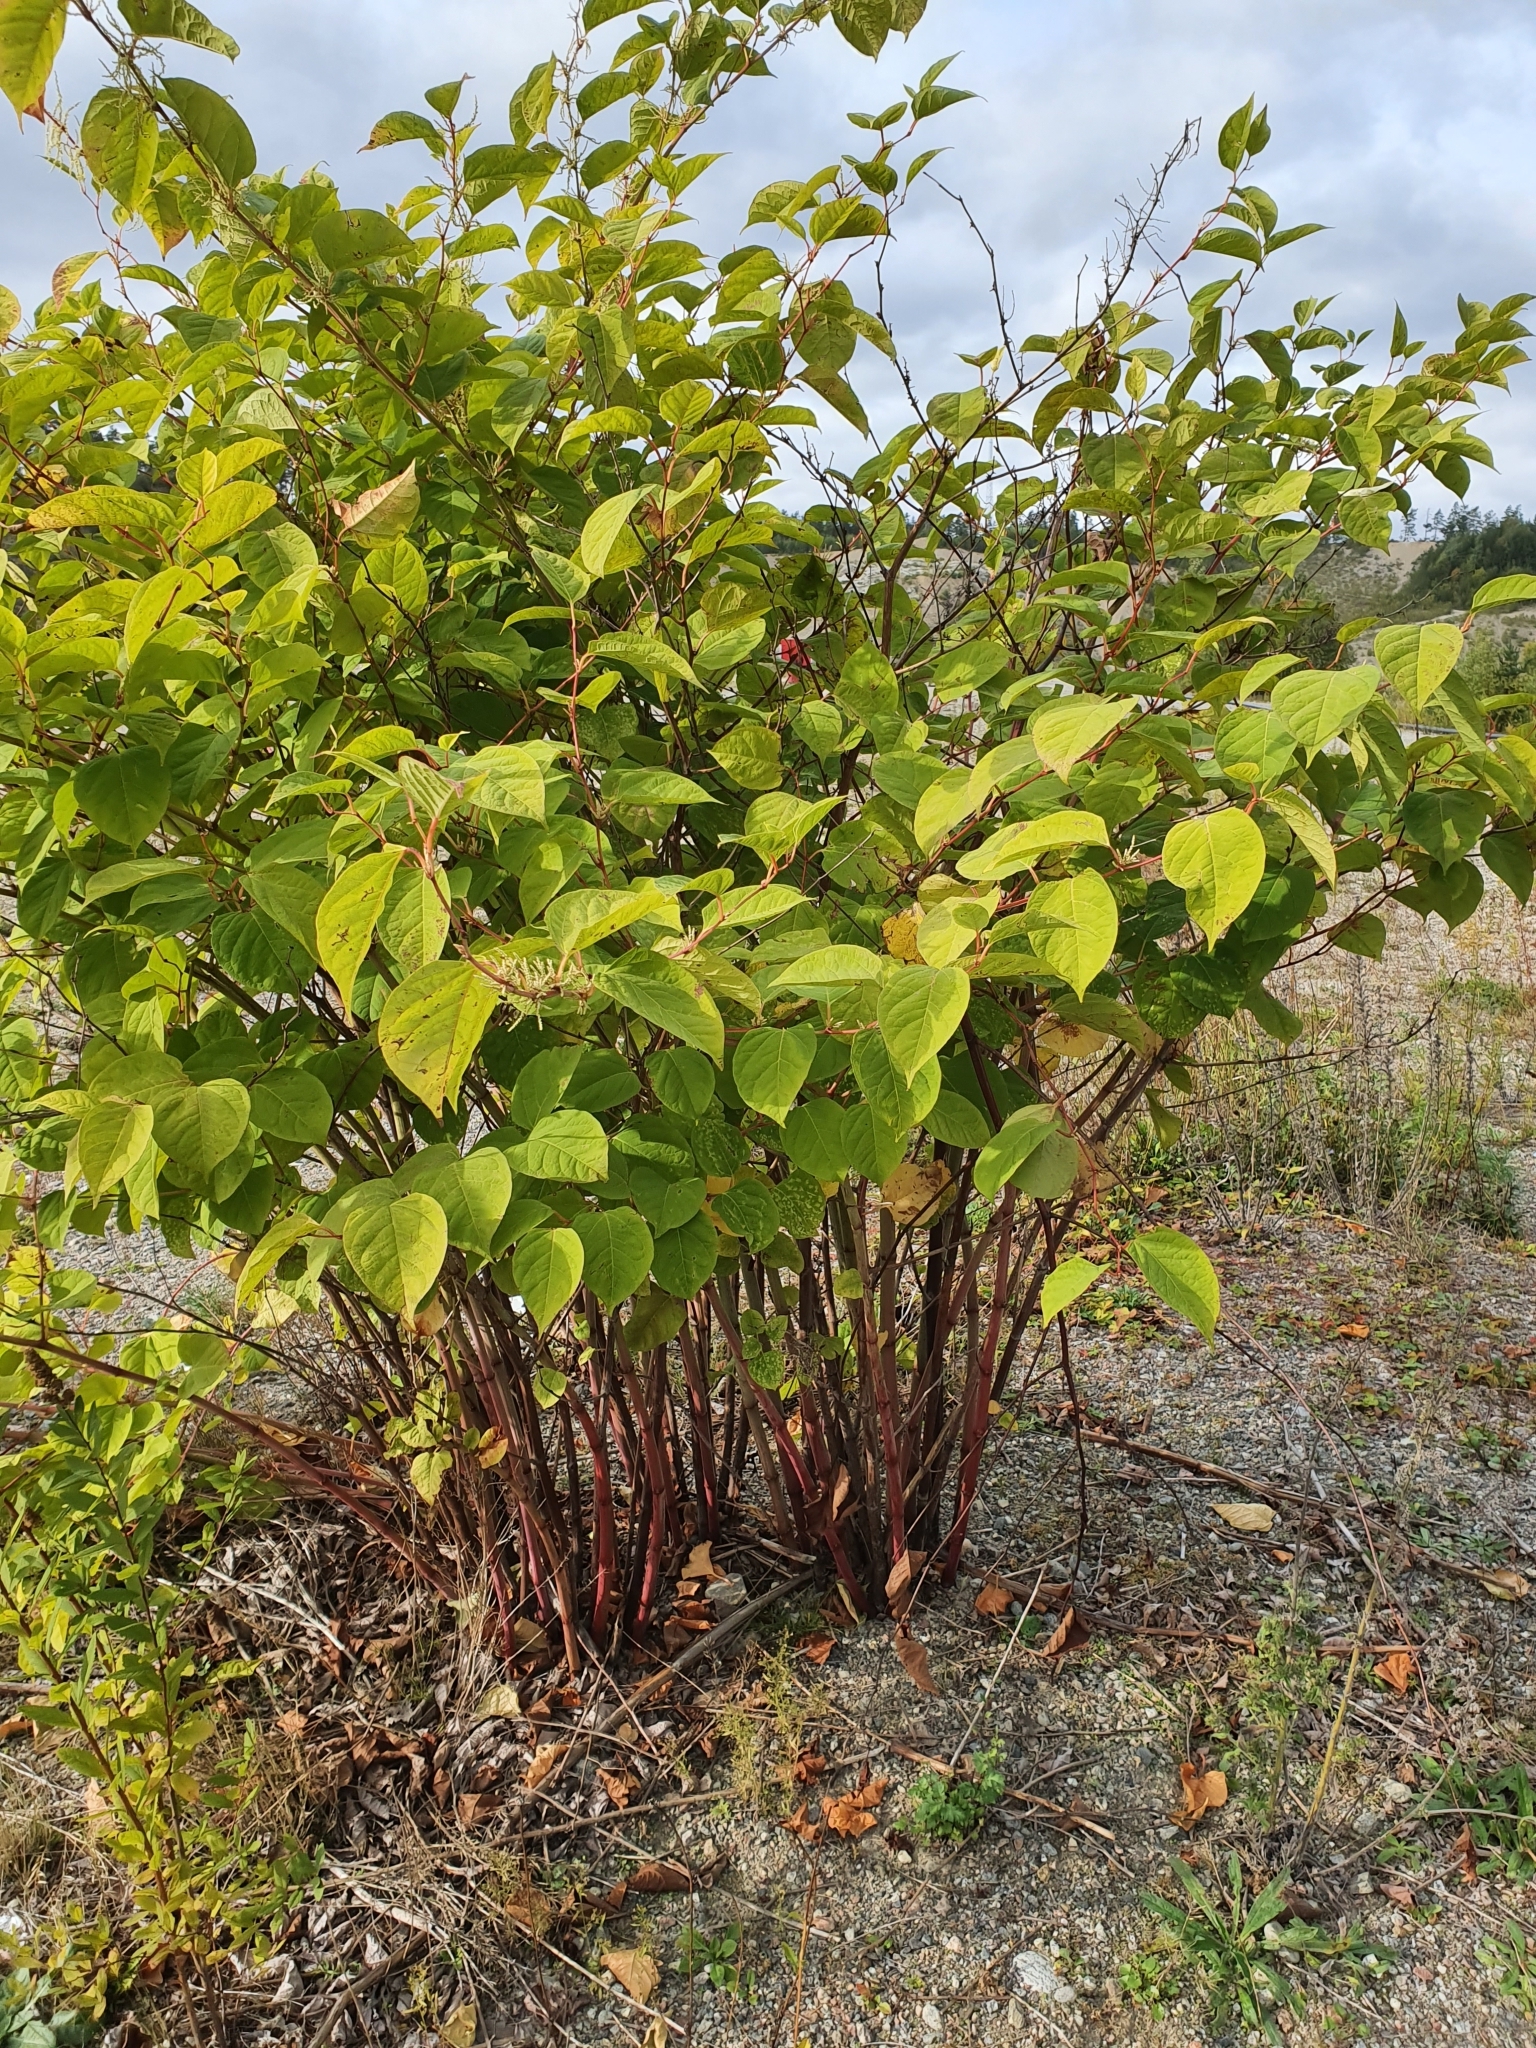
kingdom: Plantae
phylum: Tracheophyta
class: Magnoliopsida
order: Caryophyllales
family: Polygonaceae
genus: Reynoutria
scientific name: Reynoutria japonica
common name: Japanese knotweed
